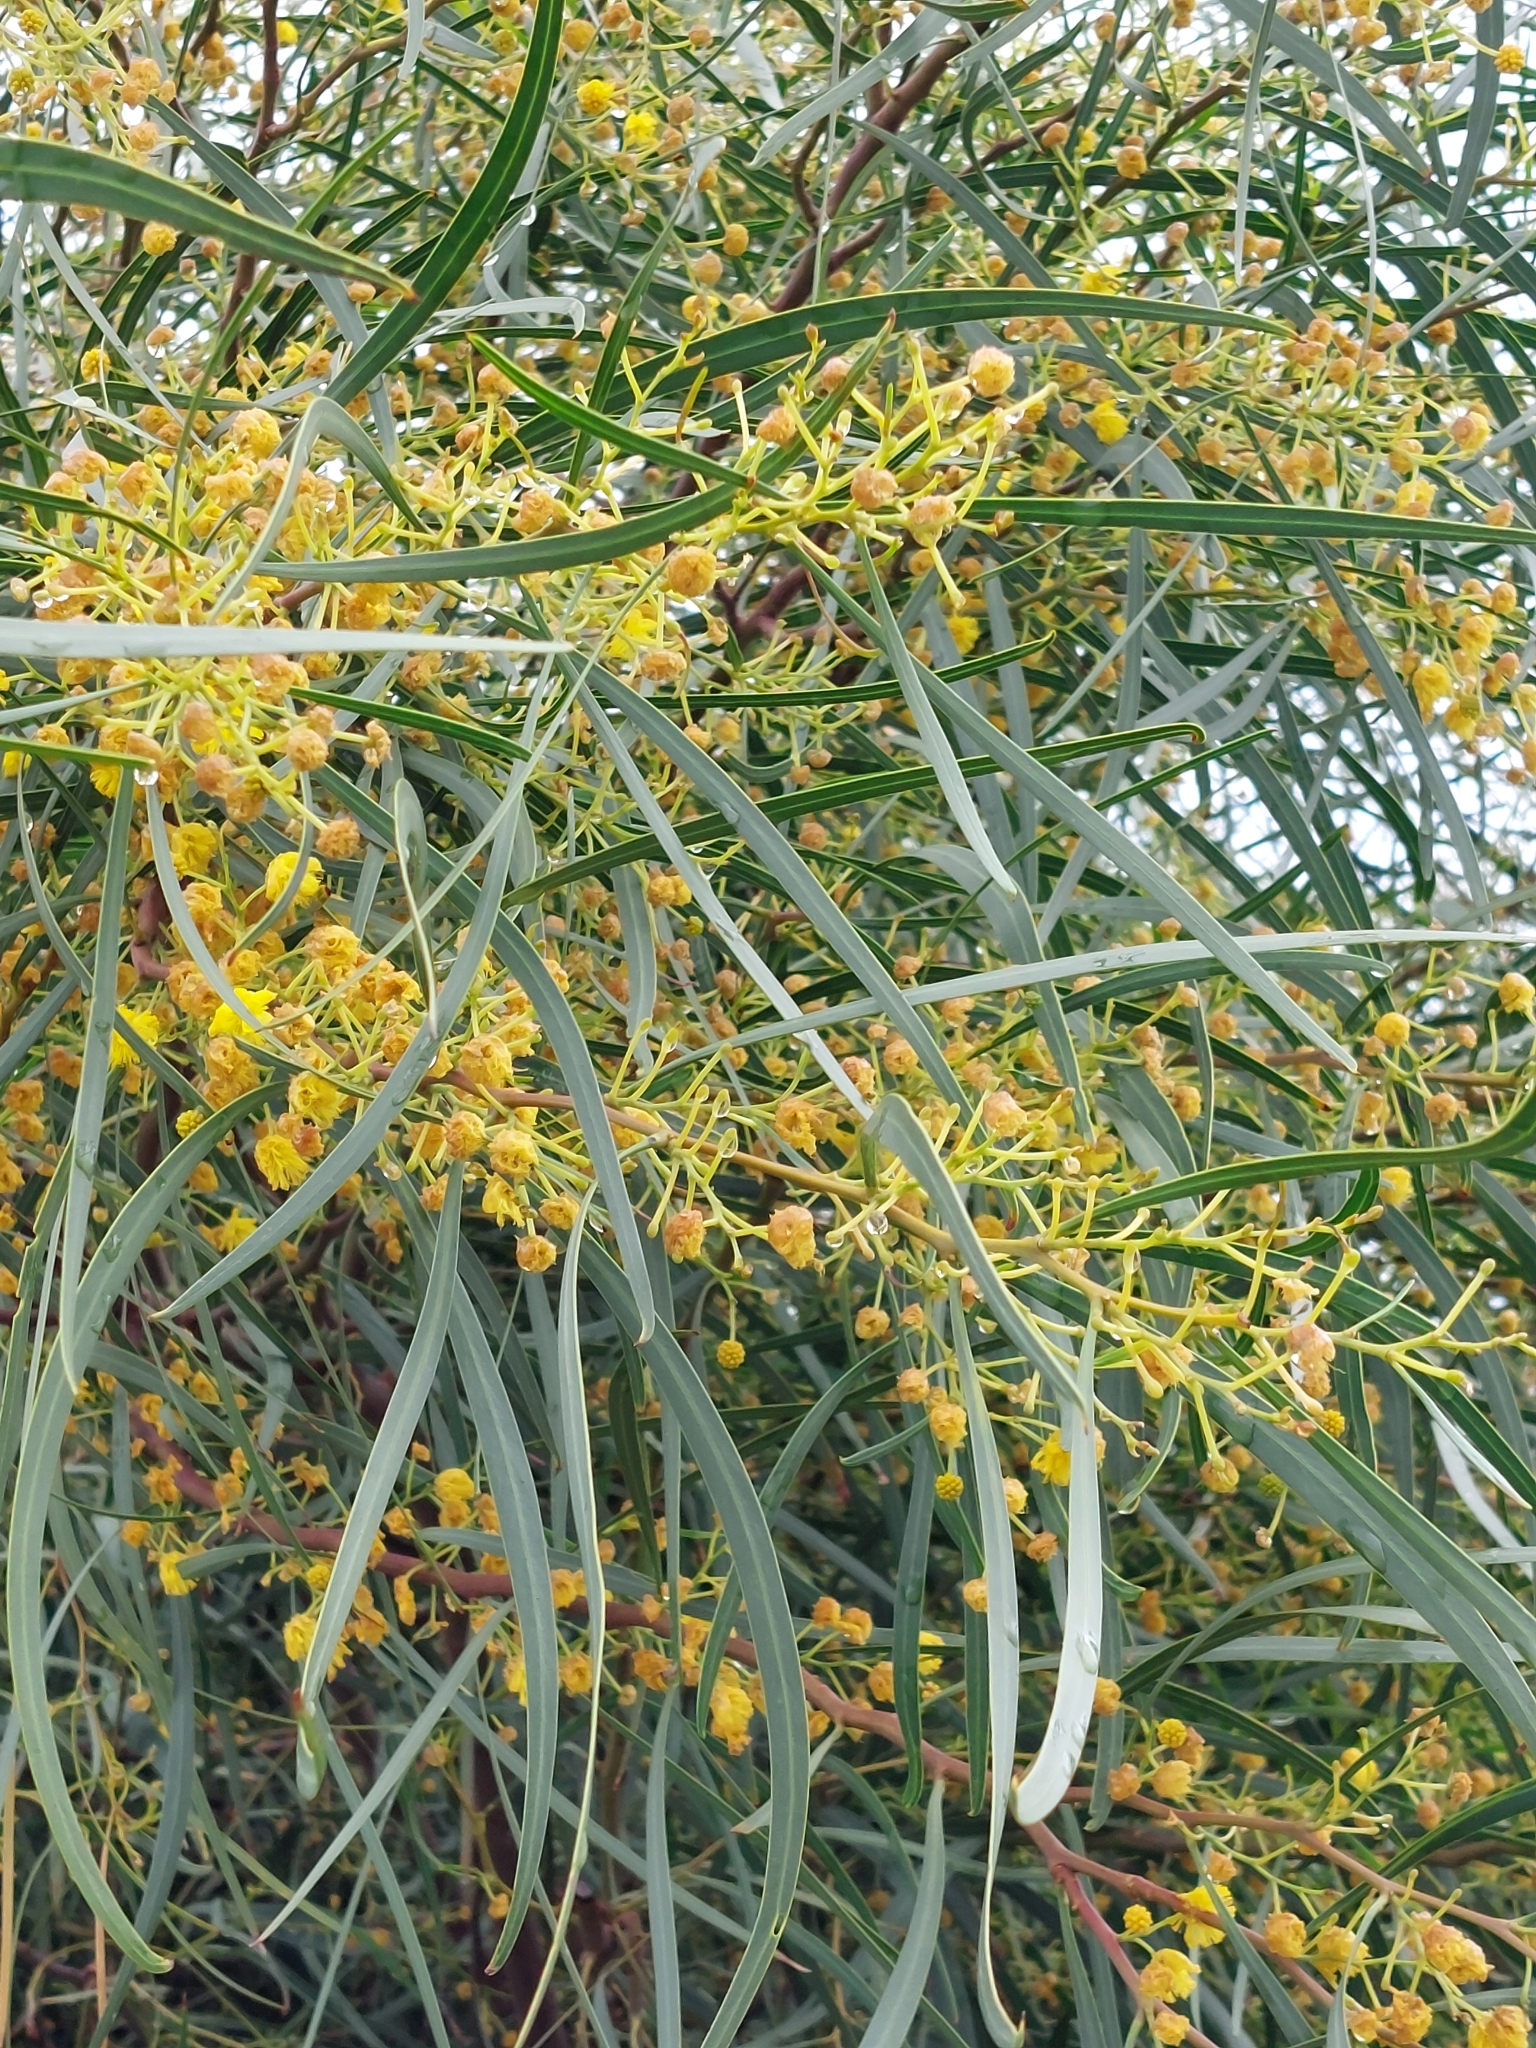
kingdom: Plantae
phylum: Tracheophyta
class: Magnoliopsida
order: Fabales
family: Fabaceae
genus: Acacia
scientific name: Acacia saligna
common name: Orange wattle
